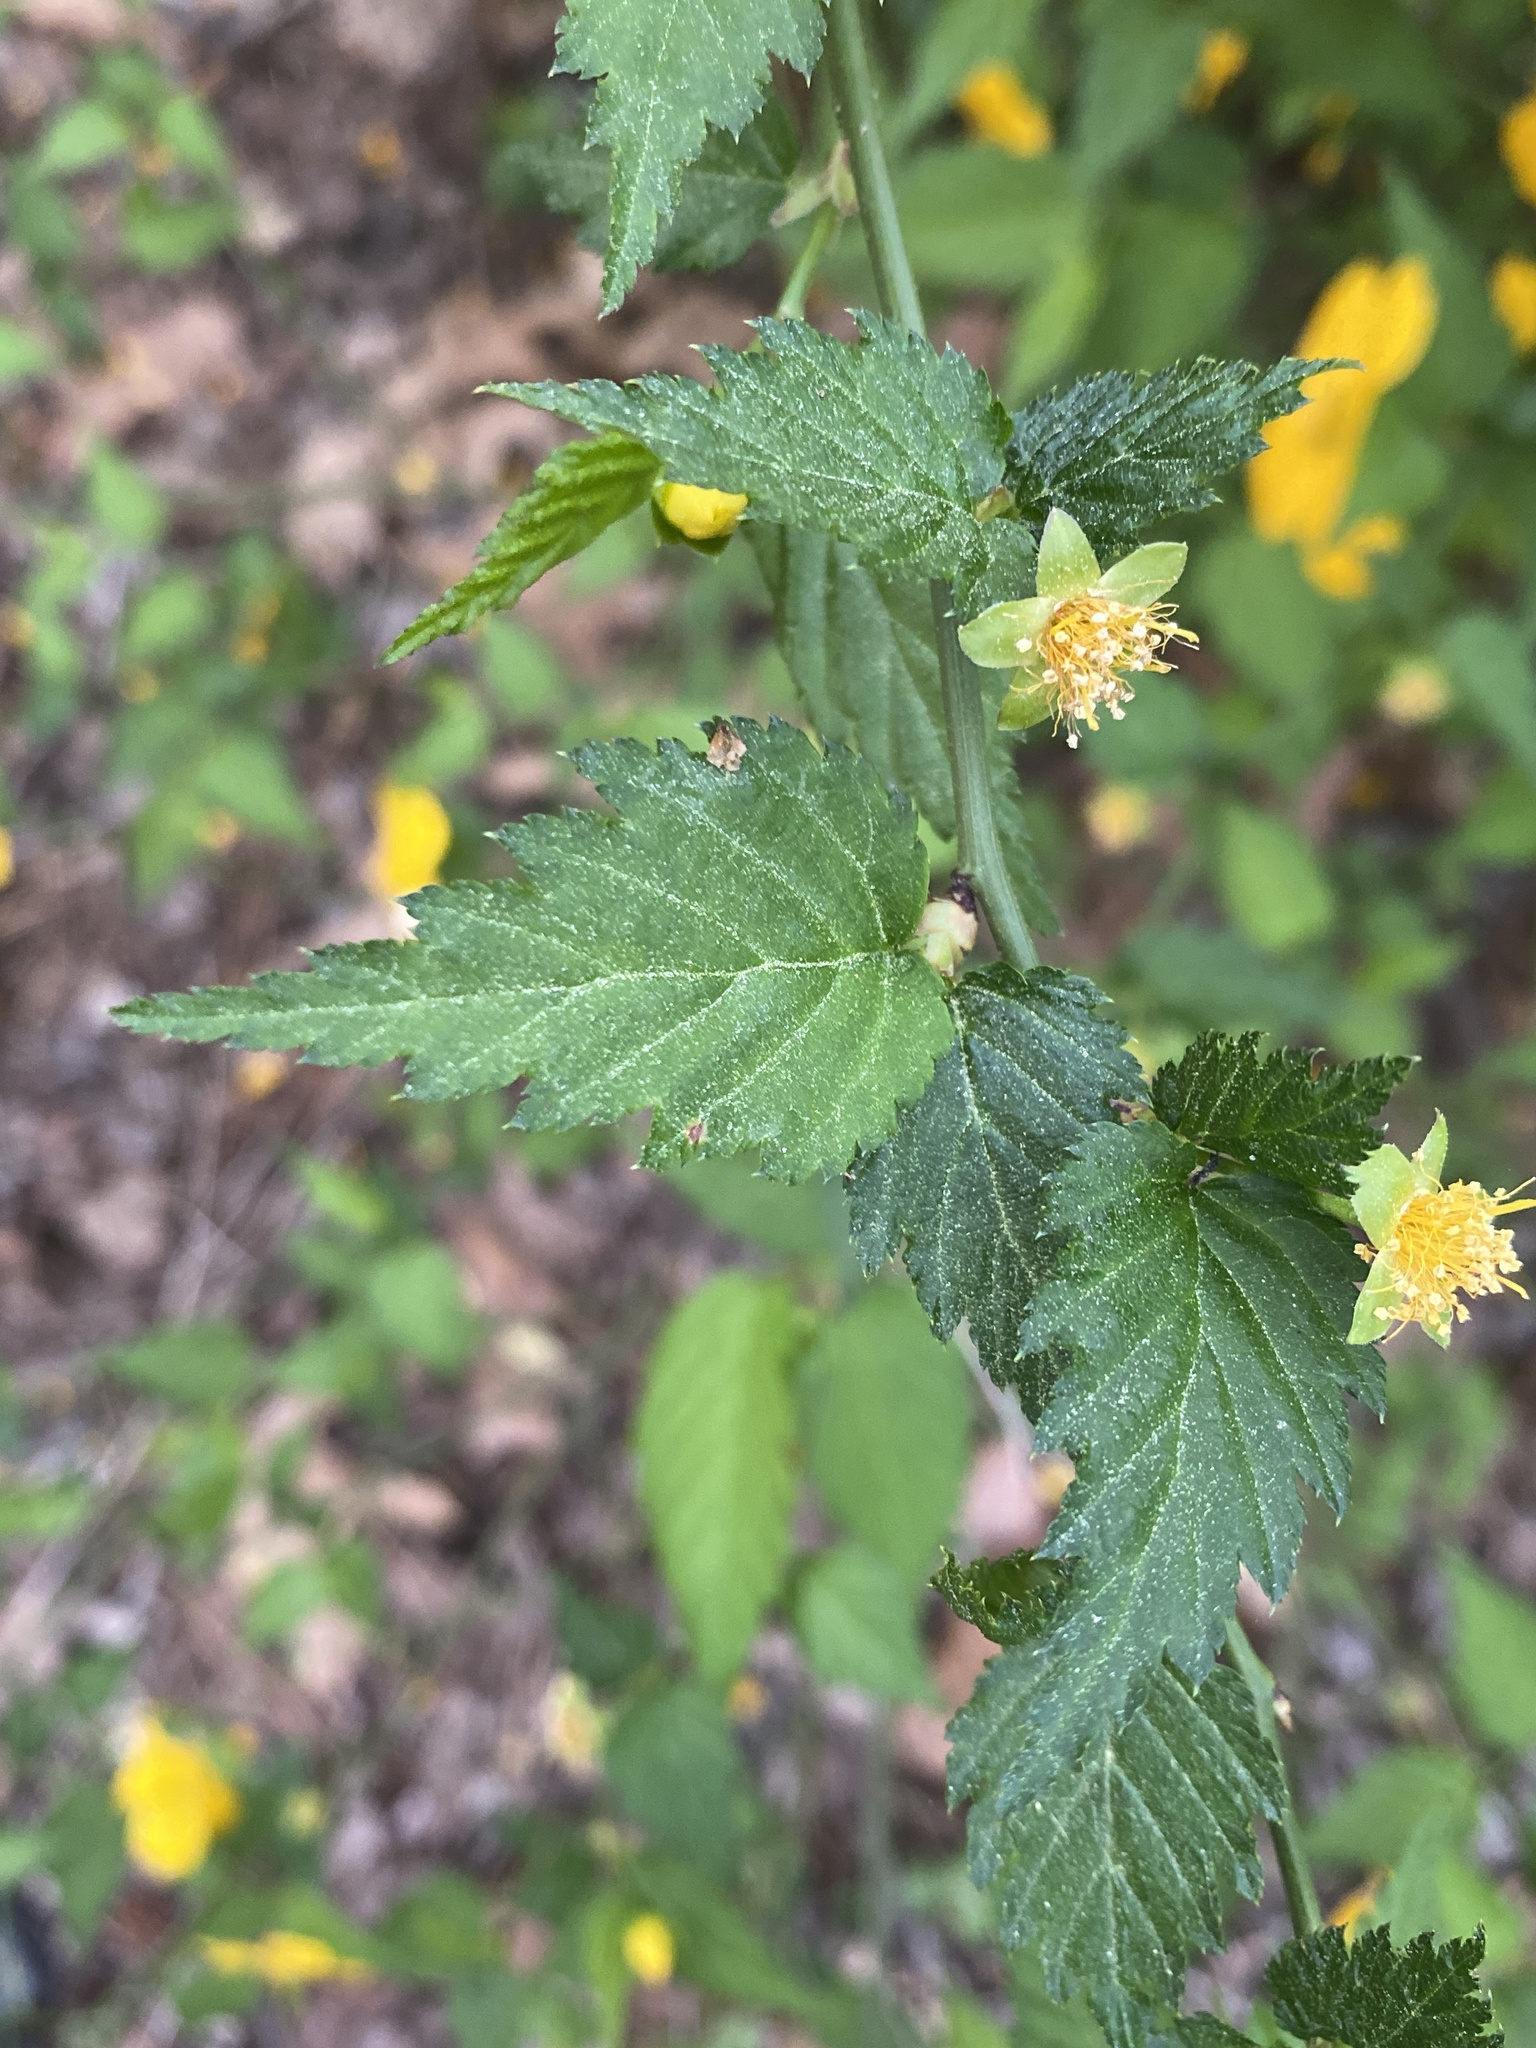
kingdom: Plantae
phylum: Tracheophyta
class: Magnoliopsida
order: Rosales
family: Rosaceae
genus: Kerria
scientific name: Kerria japonica
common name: Japanese kerria
